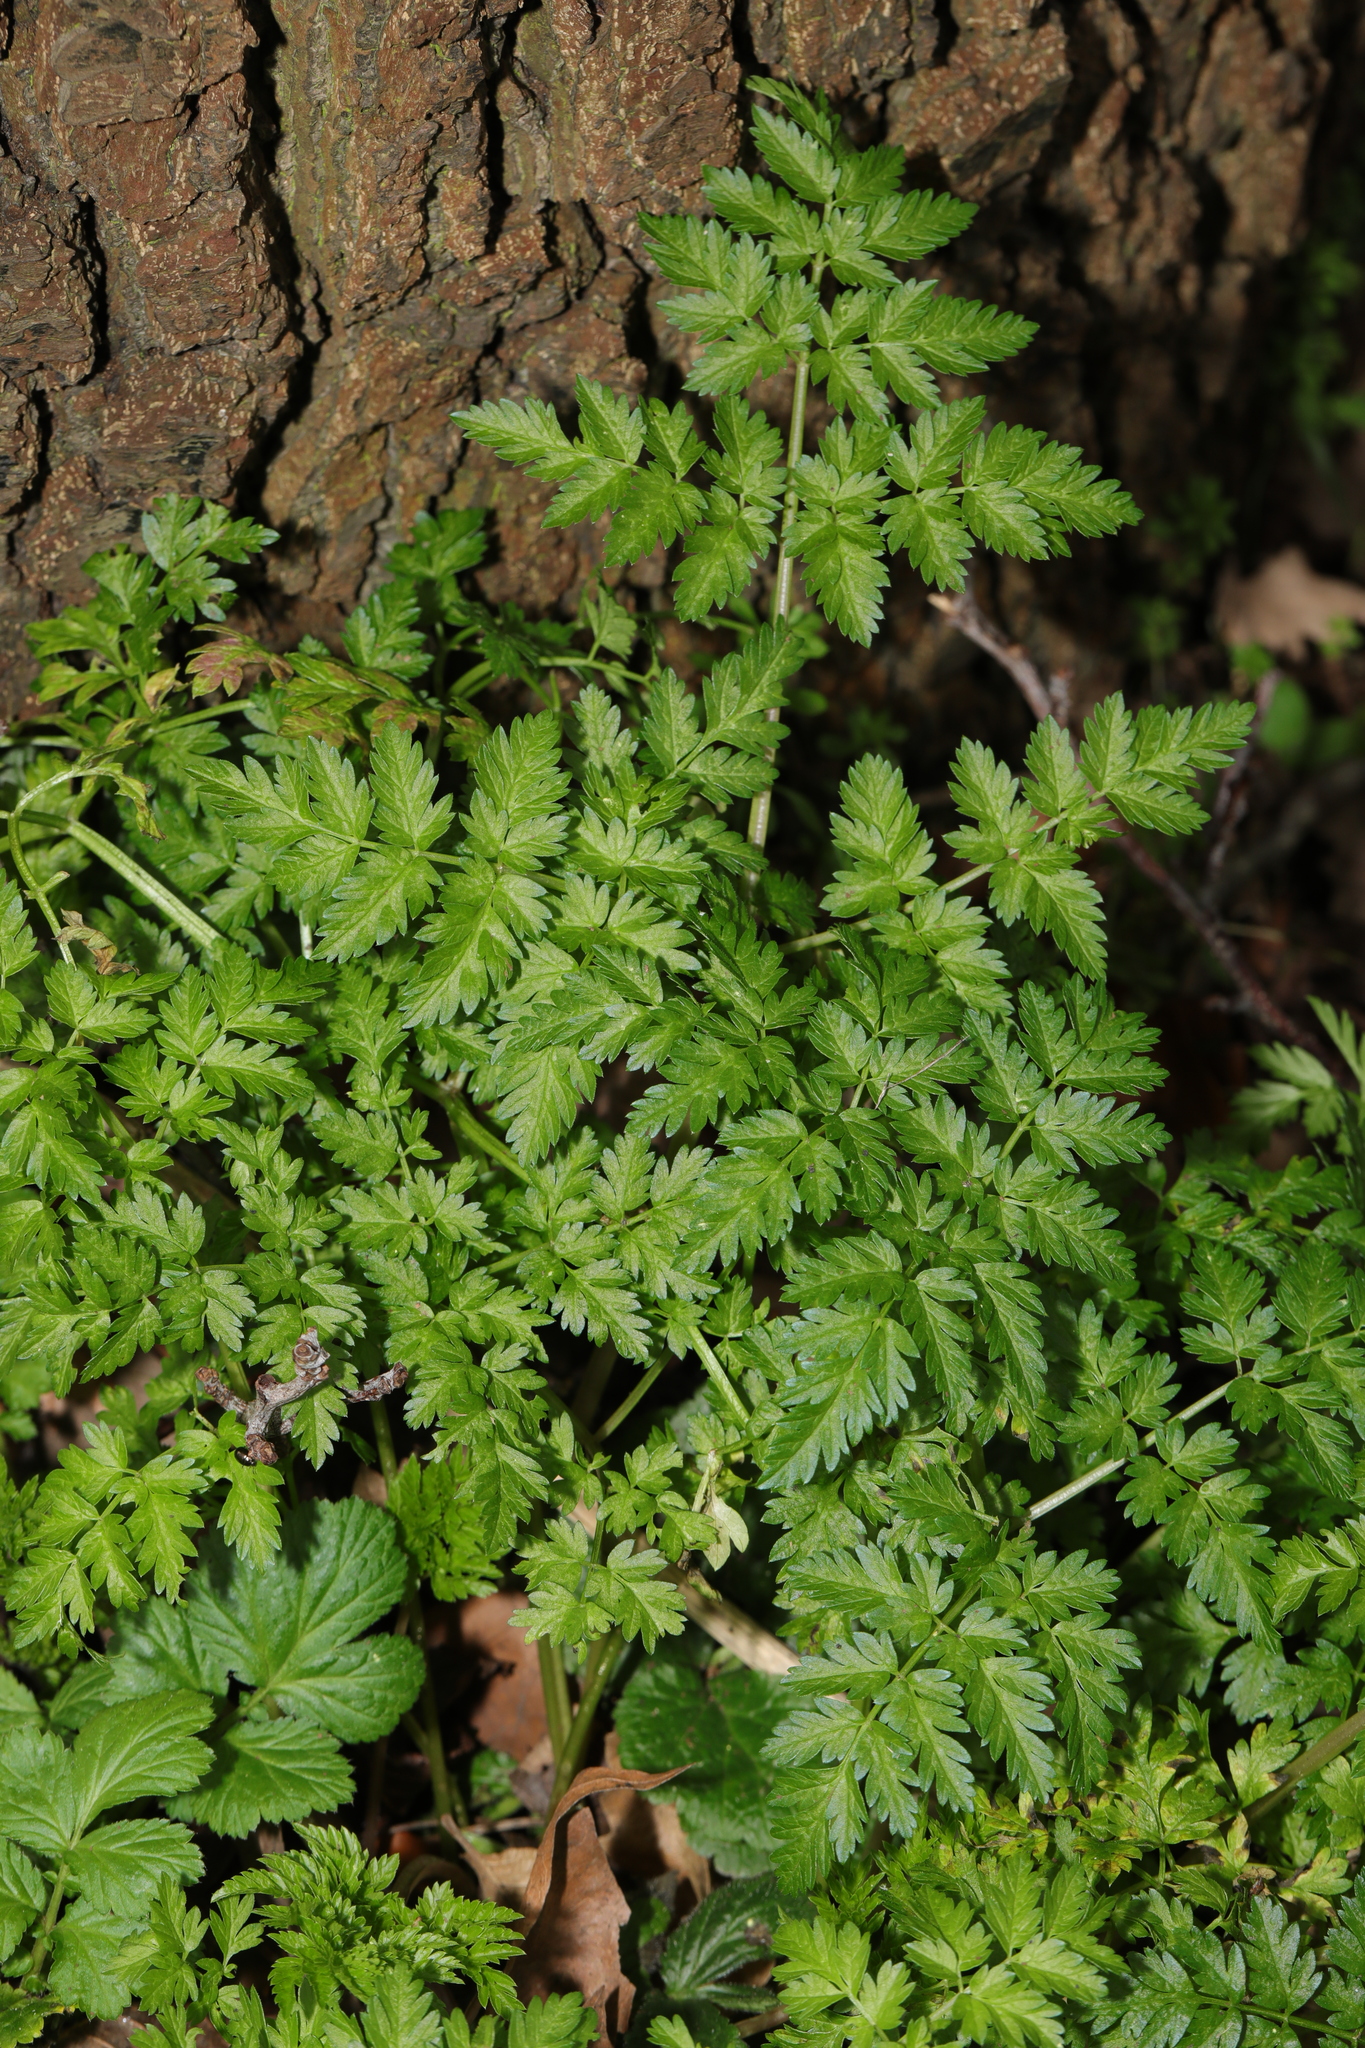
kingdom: Plantae
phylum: Tracheophyta
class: Magnoliopsida
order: Apiales
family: Apiaceae
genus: Anthriscus
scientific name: Anthriscus sylvestris
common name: Cow parsley
